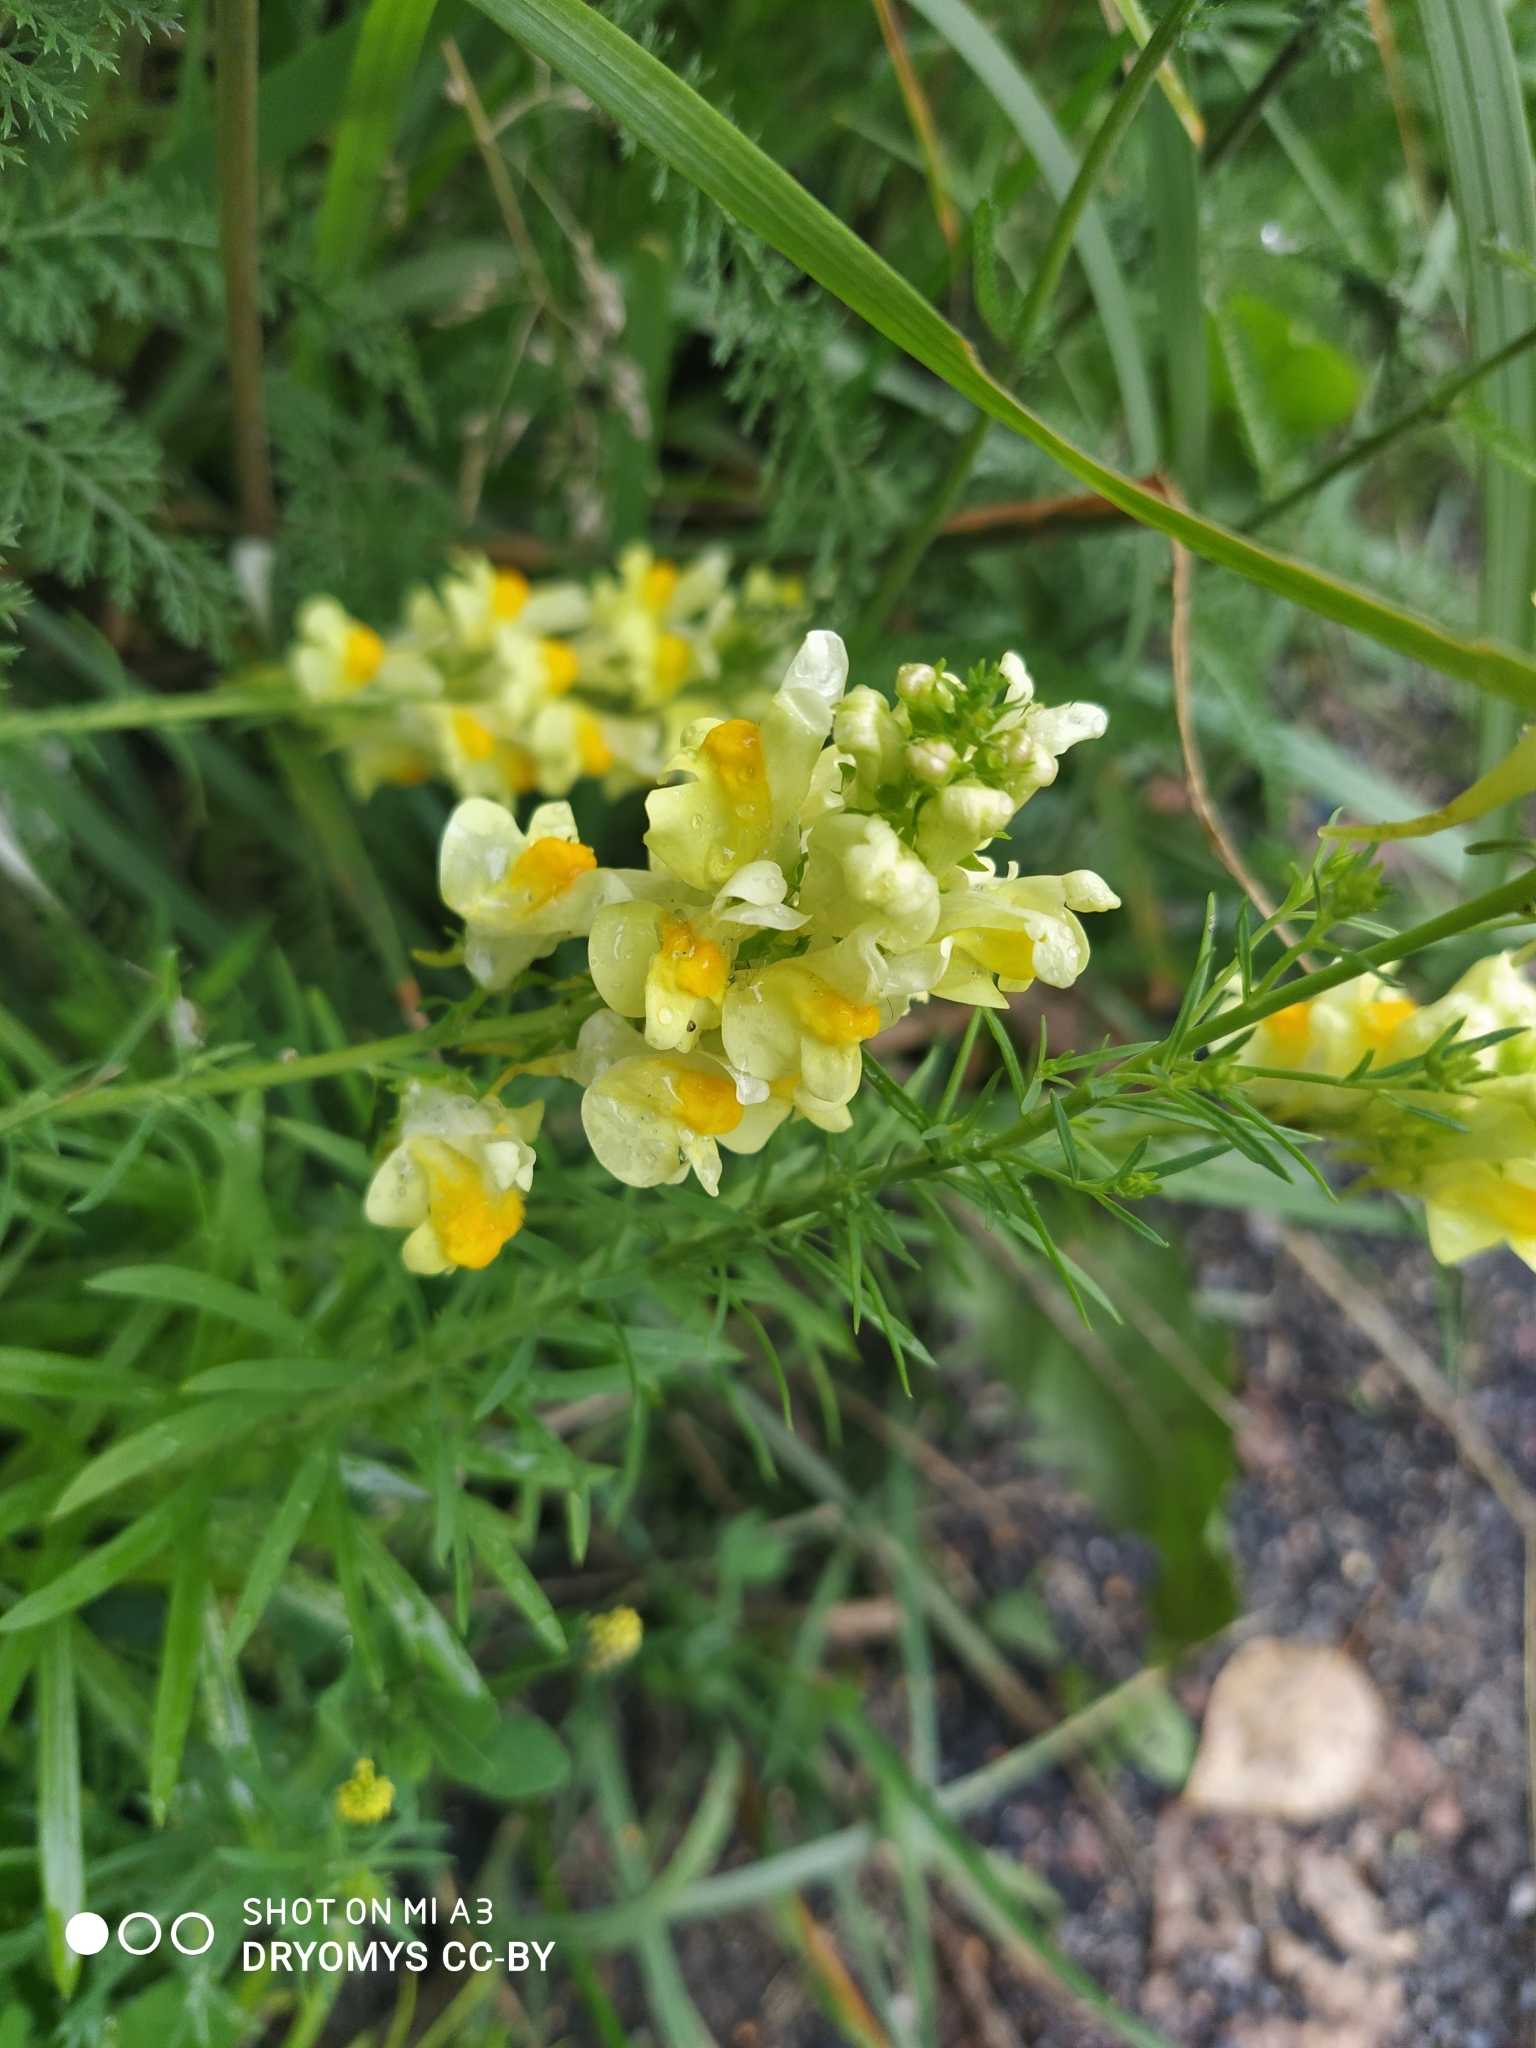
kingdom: Plantae
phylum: Tracheophyta
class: Magnoliopsida
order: Lamiales
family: Plantaginaceae
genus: Linaria
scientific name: Linaria vulgaris
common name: Butter and eggs
